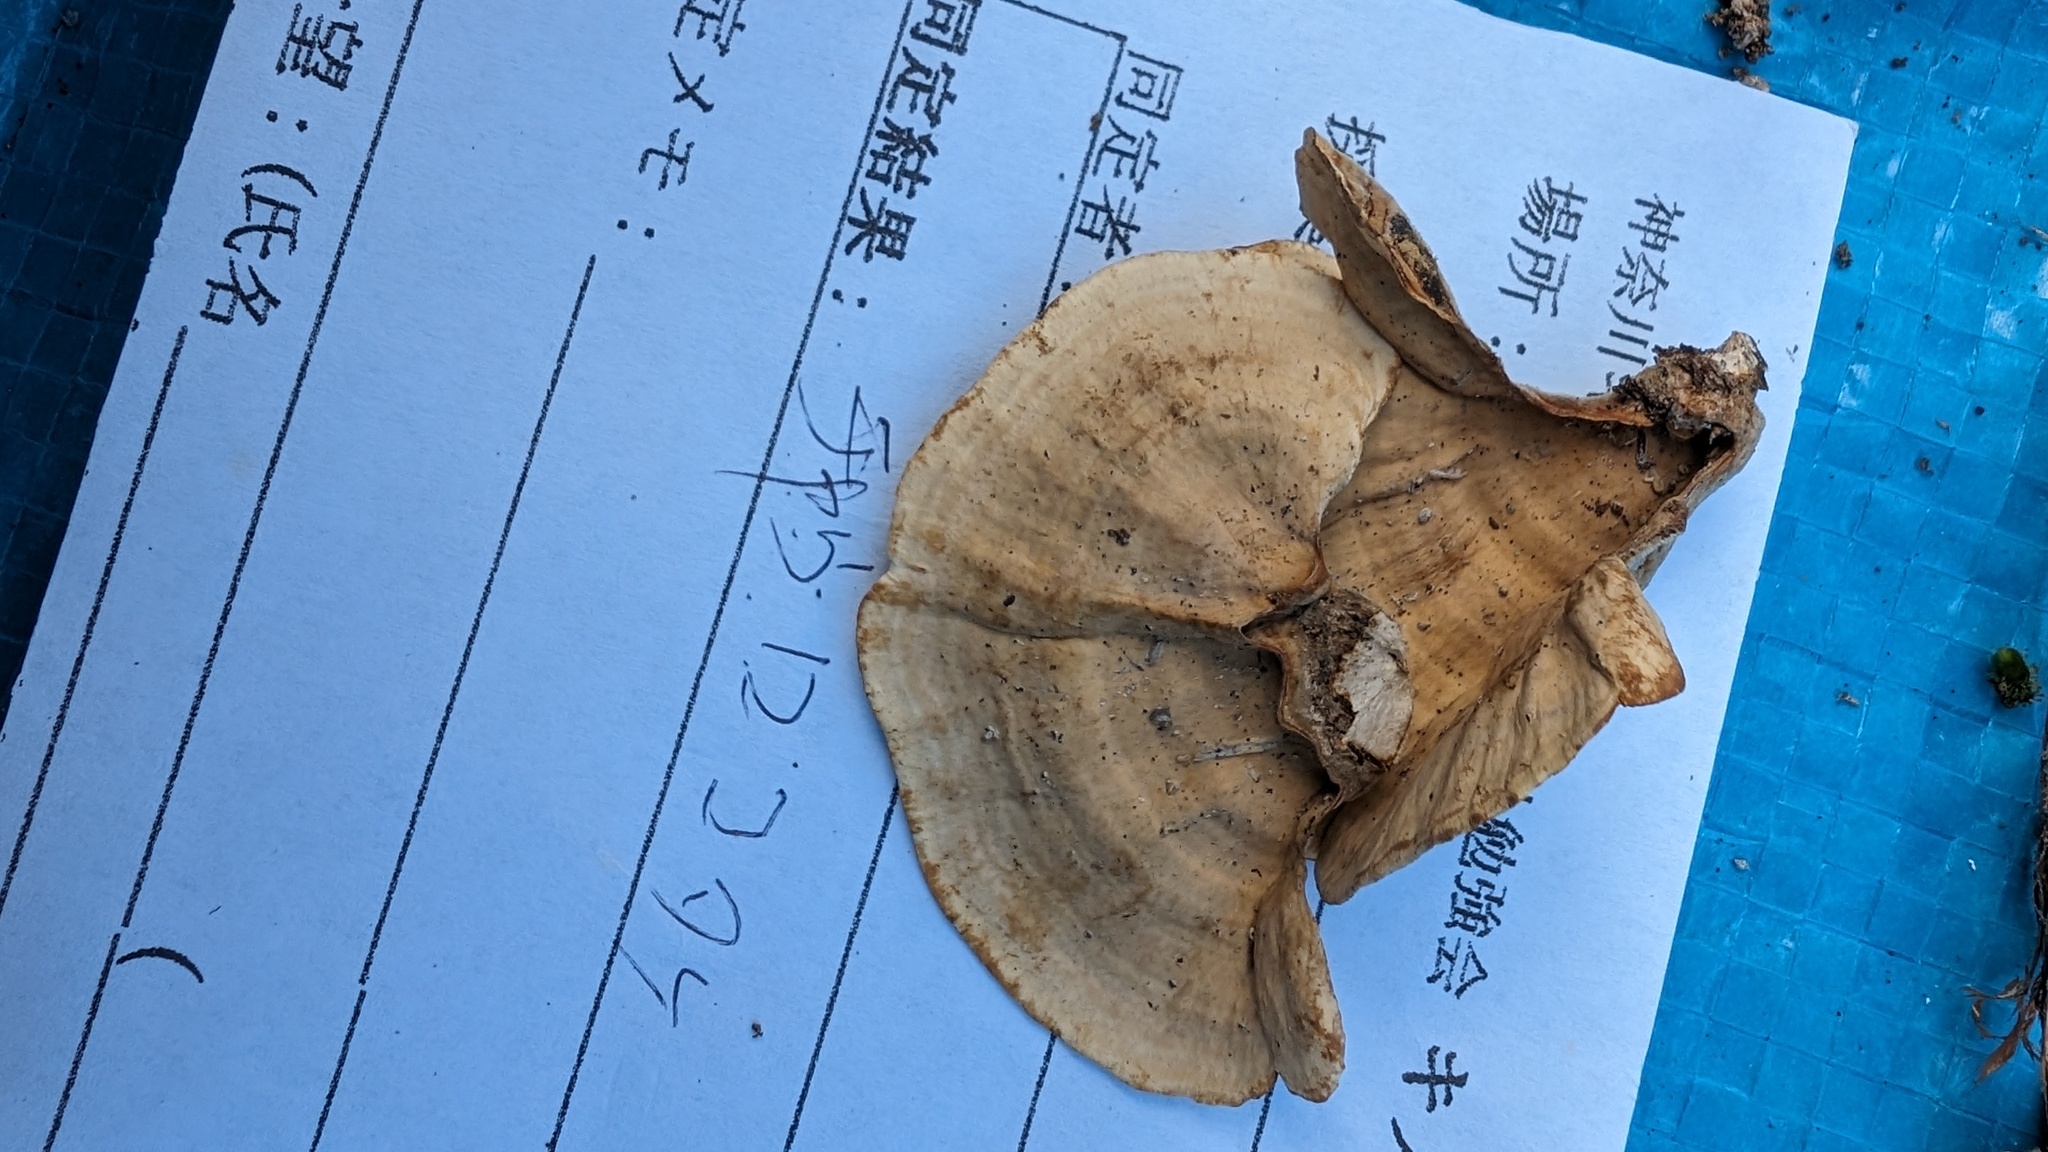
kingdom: Fungi
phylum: Basidiomycota
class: Agaricomycetes
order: Russulales
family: Stereaceae
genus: Stereum
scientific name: Stereum ostrea
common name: False turkeytail
